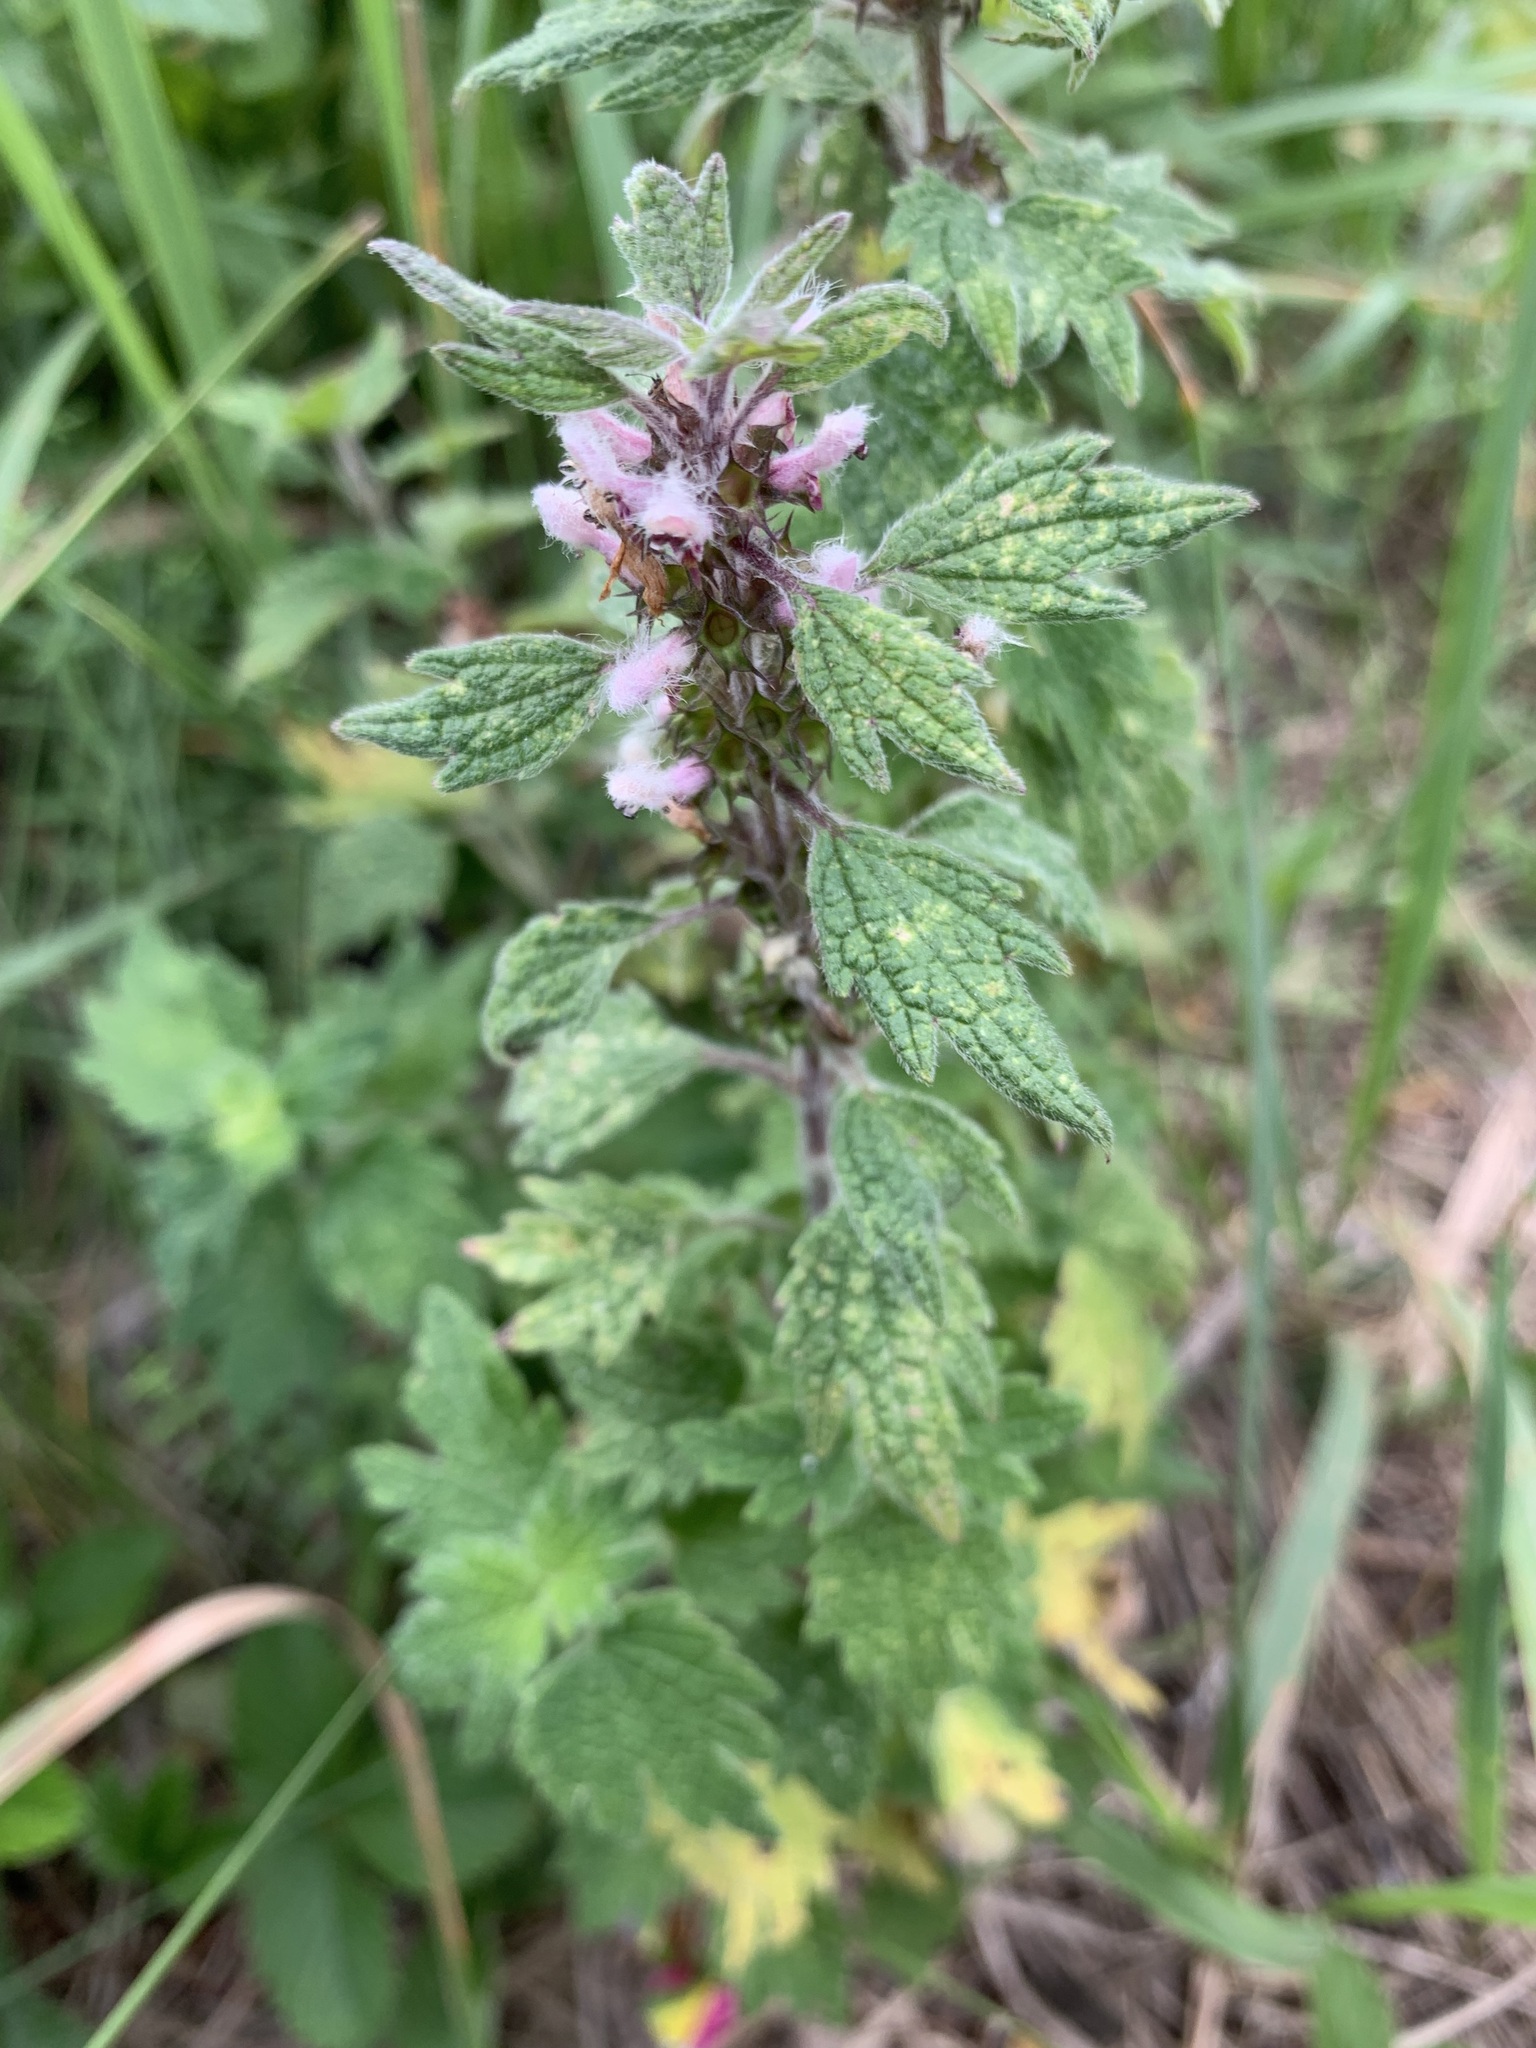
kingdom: Plantae
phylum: Tracheophyta
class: Magnoliopsida
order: Lamiales
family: Lamiaceae
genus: Leonurus
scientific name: Leonurus quinquelobatus
